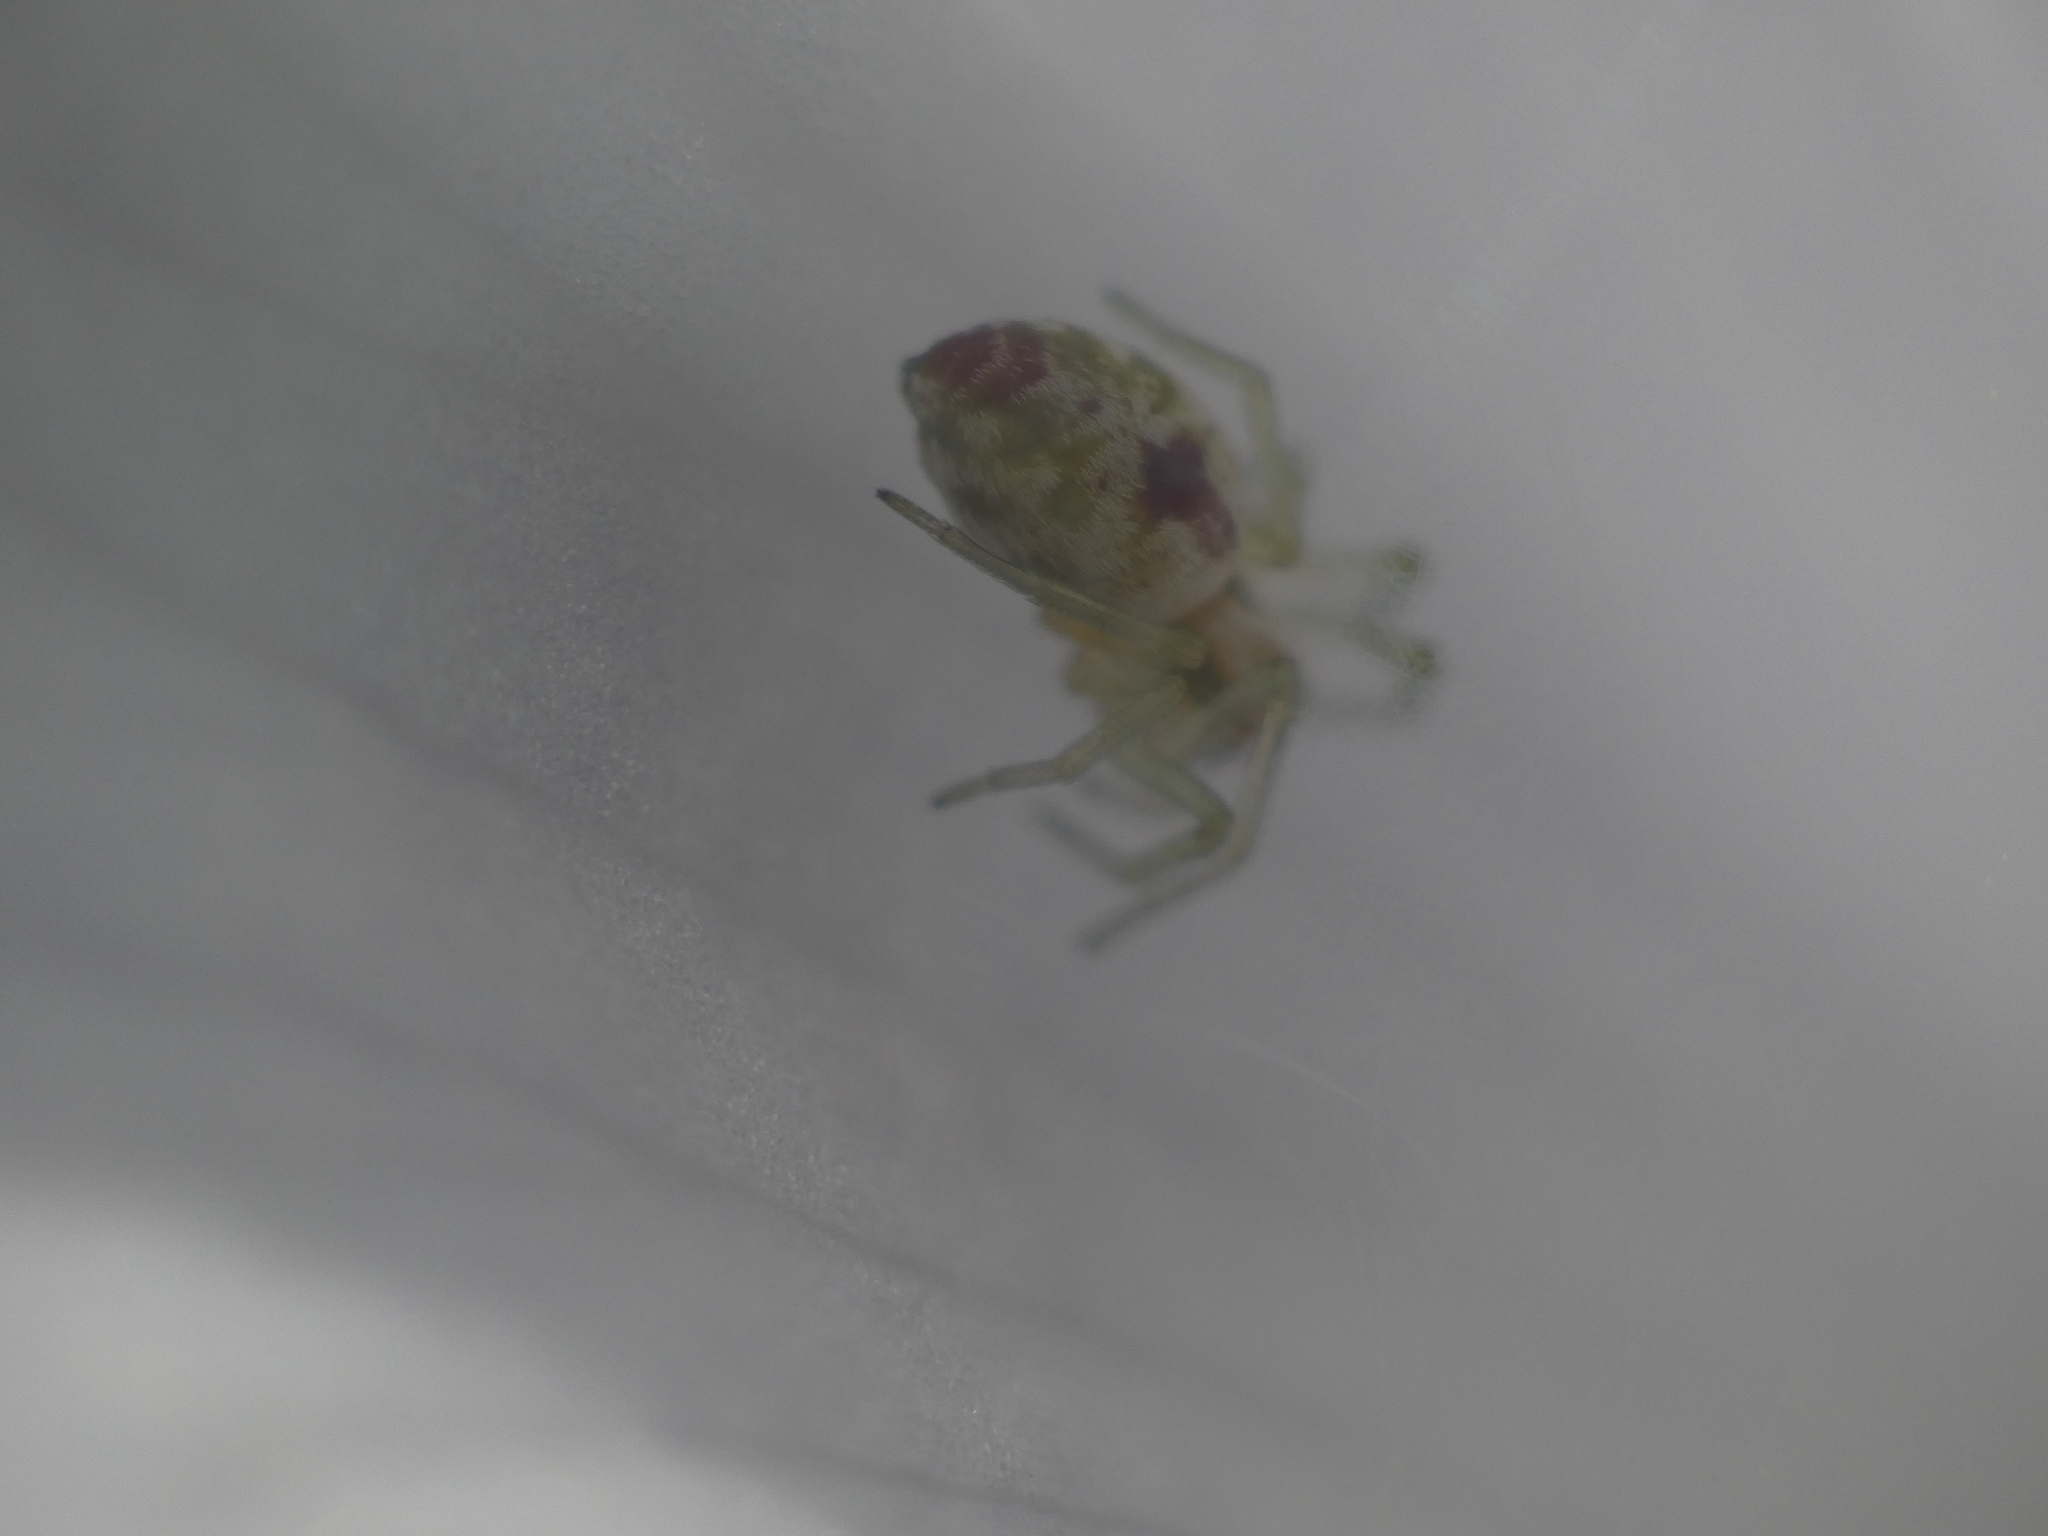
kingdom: Animalia
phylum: Arthropoda
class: Arachnida
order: Araneae
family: Dictynidae
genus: Nigma
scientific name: Nigma puella
